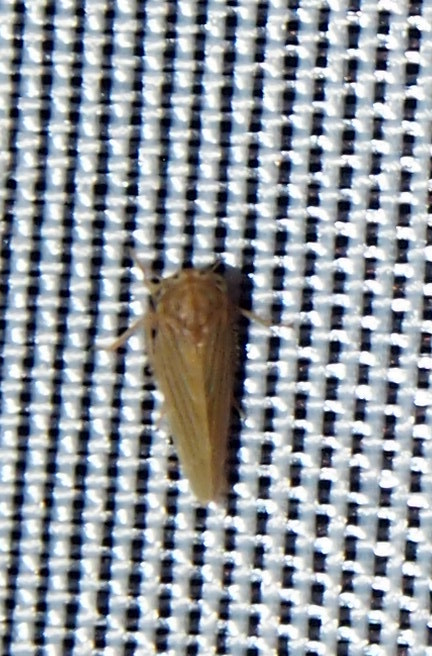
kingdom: Animalia
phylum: Arthropoda
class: Insecta
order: Hemiptera
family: Cicadellidae
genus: Agallia
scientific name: Agallia constricta
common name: The constricted leafhopper
